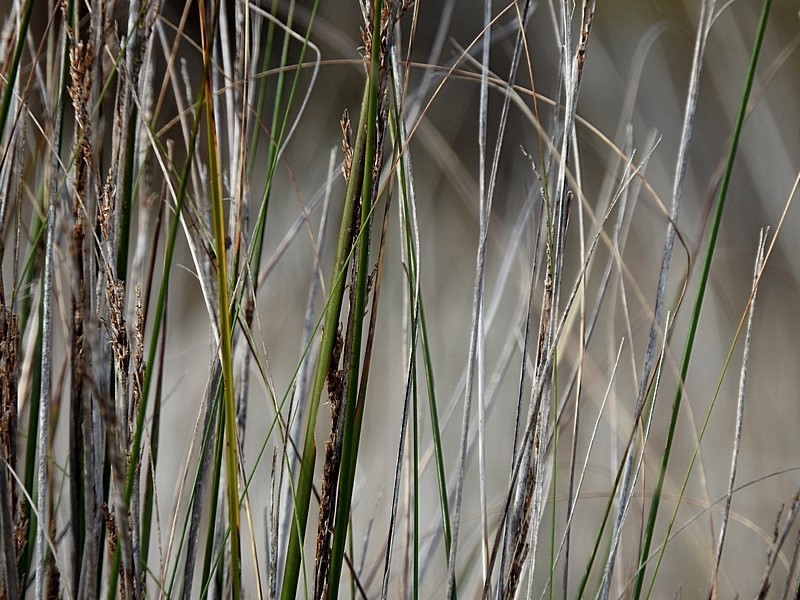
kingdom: Plantae
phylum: Tracheophyta
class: Liliopsida
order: Poales
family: Cyperaceae
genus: Gahnia
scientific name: Gahnia filum
